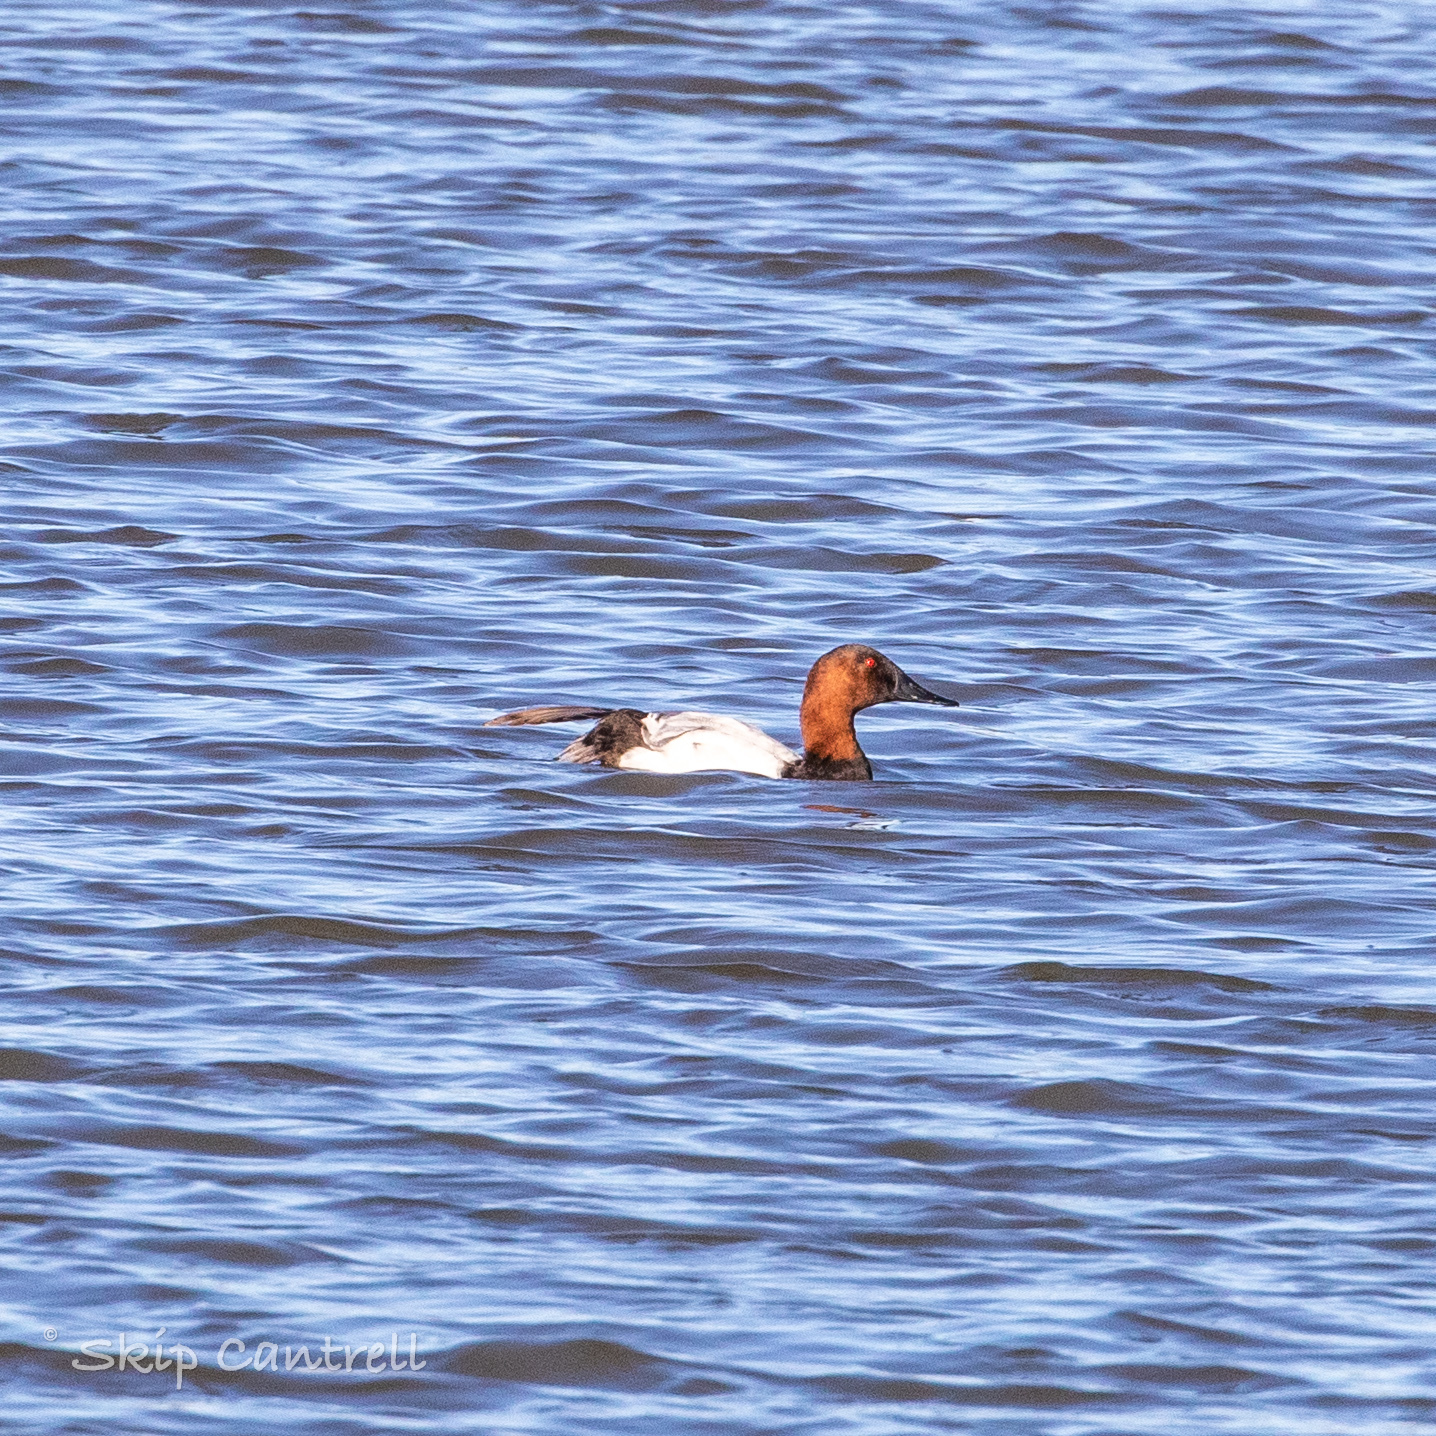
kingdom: Animalia
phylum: Chordata
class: Aves
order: Anseriformes
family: Anatidae
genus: Aythya
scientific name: Aythya valisineria
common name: Canvasback
